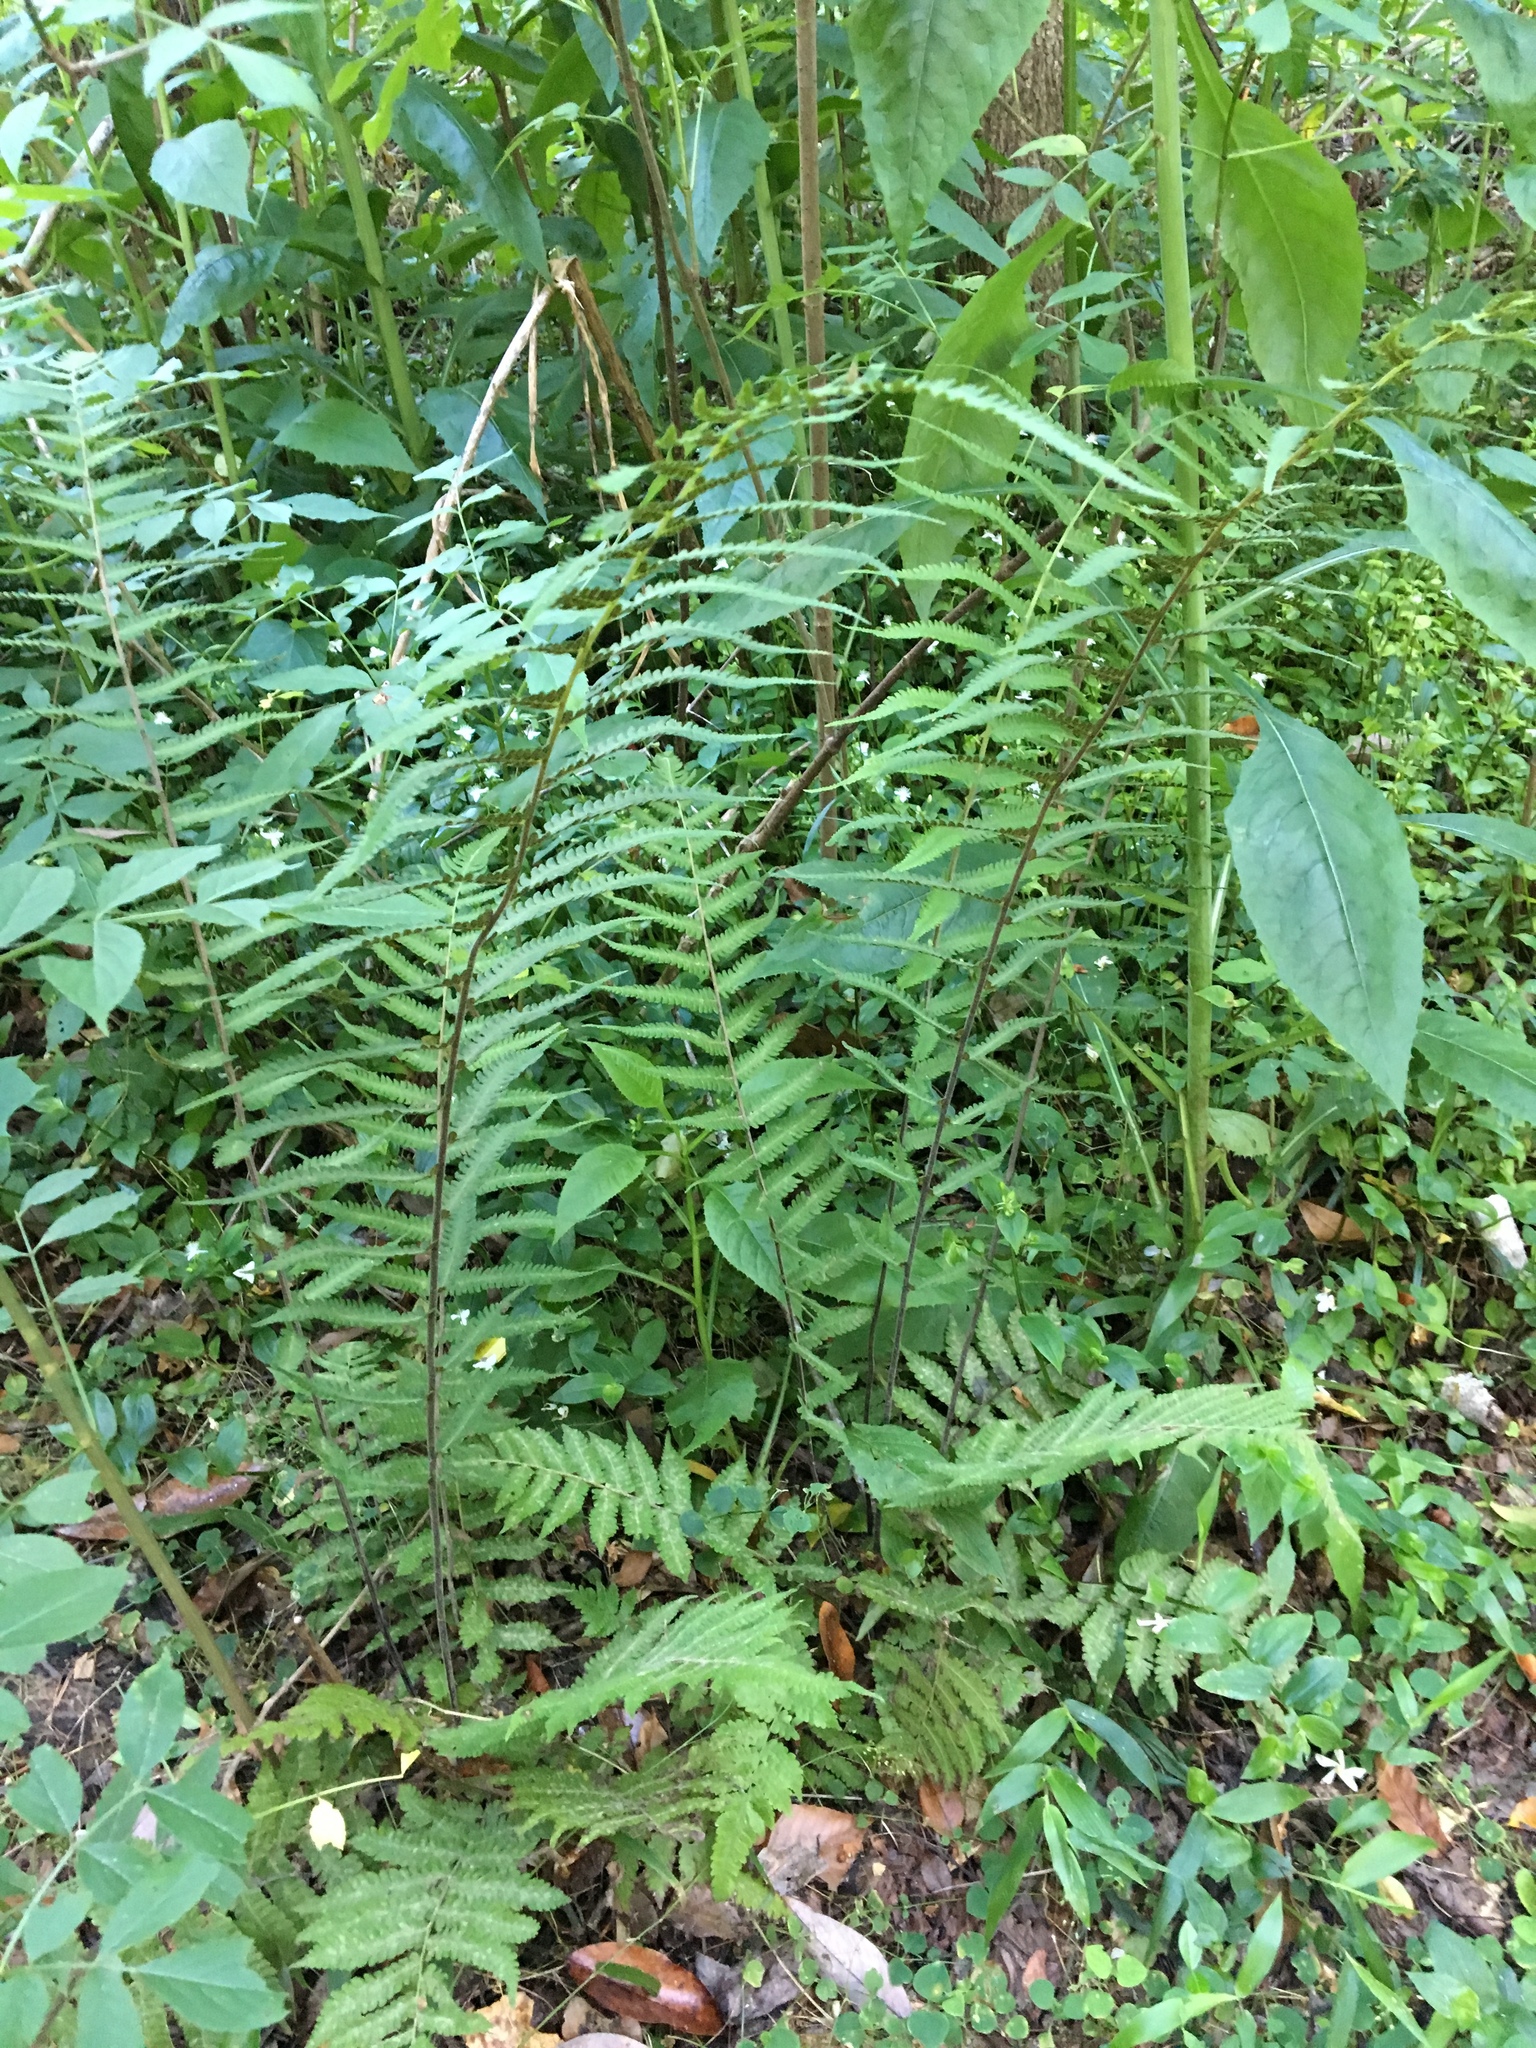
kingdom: Plantae
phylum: Tracheophyta
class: Polypodiopsida
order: Osmundales
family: Osmundaceae
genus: Osmundastrum
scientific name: Osmundastrum cinnamomeum
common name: Cinnamon fern
